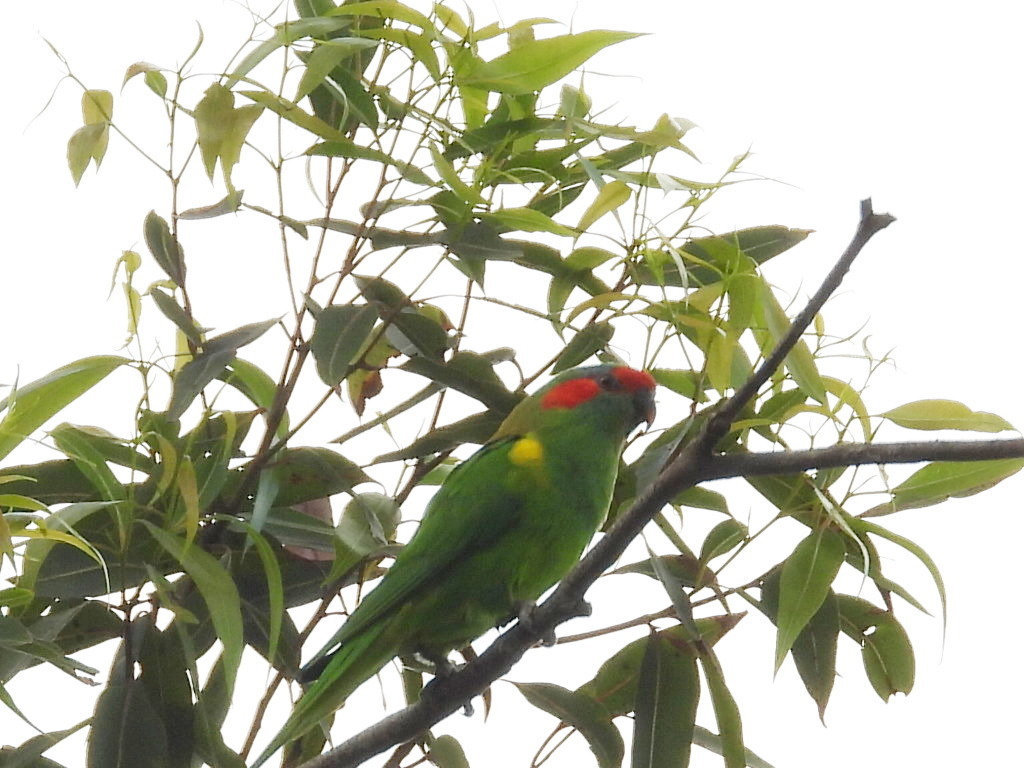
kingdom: Animalia
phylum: Chordata
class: Aves
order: Psittaciformes
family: Psittacidae
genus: Glossopsitta
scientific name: Glossopsitta concinna
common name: Musk lorikeet
